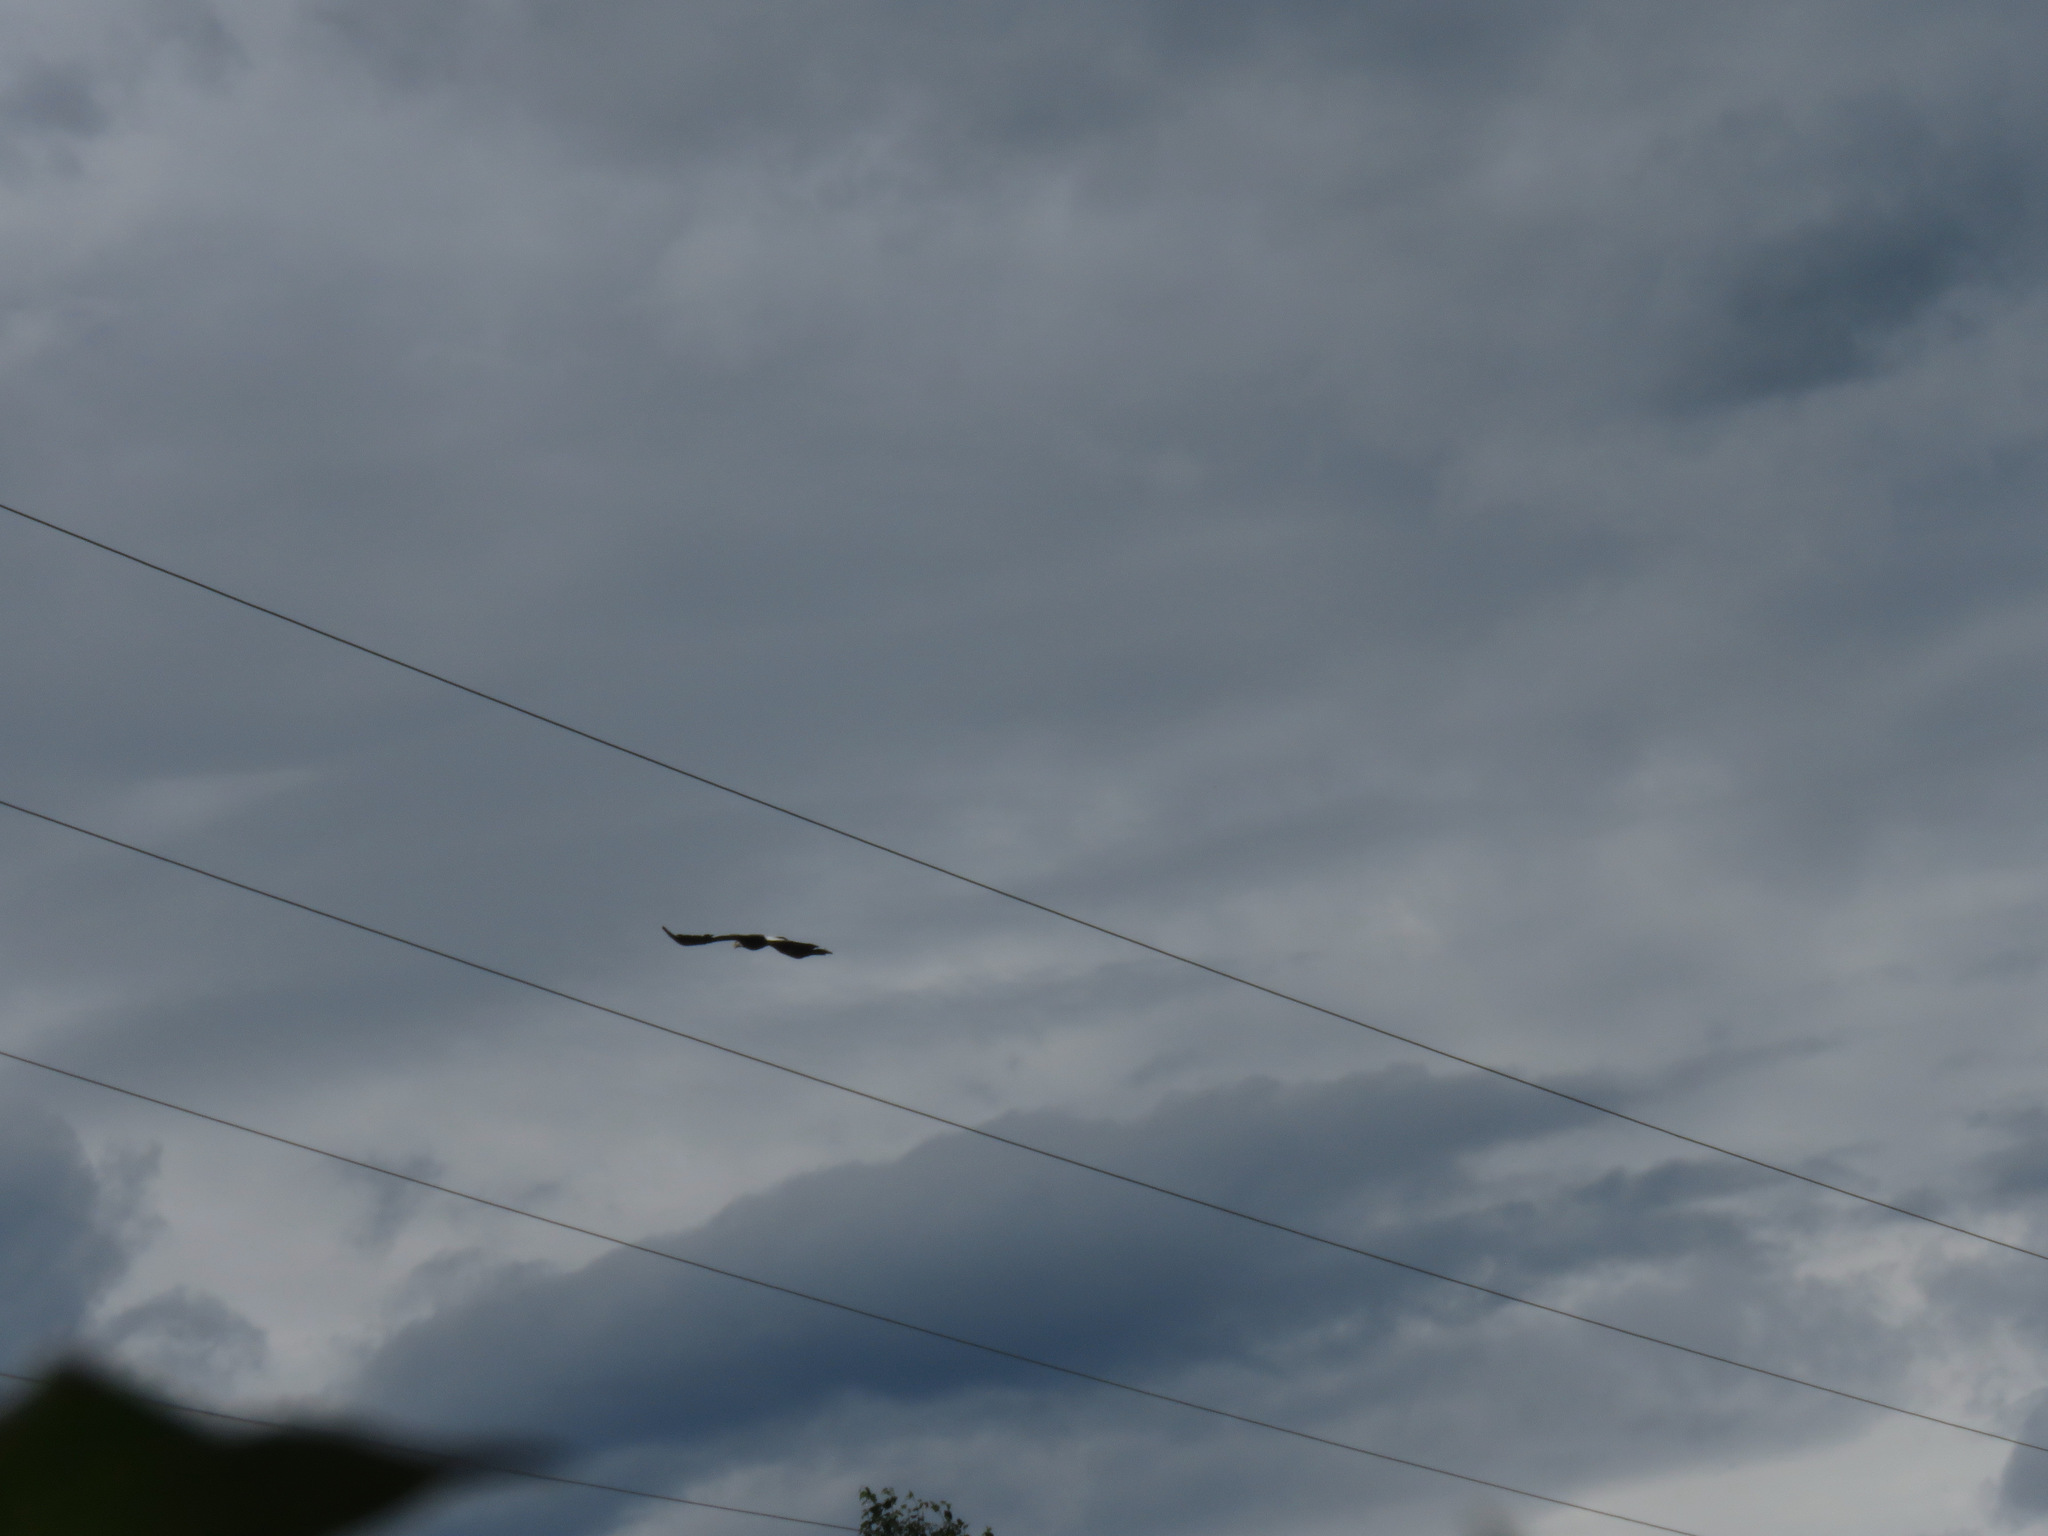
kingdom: Animalia
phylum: Chordata
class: Aves
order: Accipitriformes
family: Accipitridae
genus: Haliaeetus
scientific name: Haliaeetus leucocephalus
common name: Bald eagle
